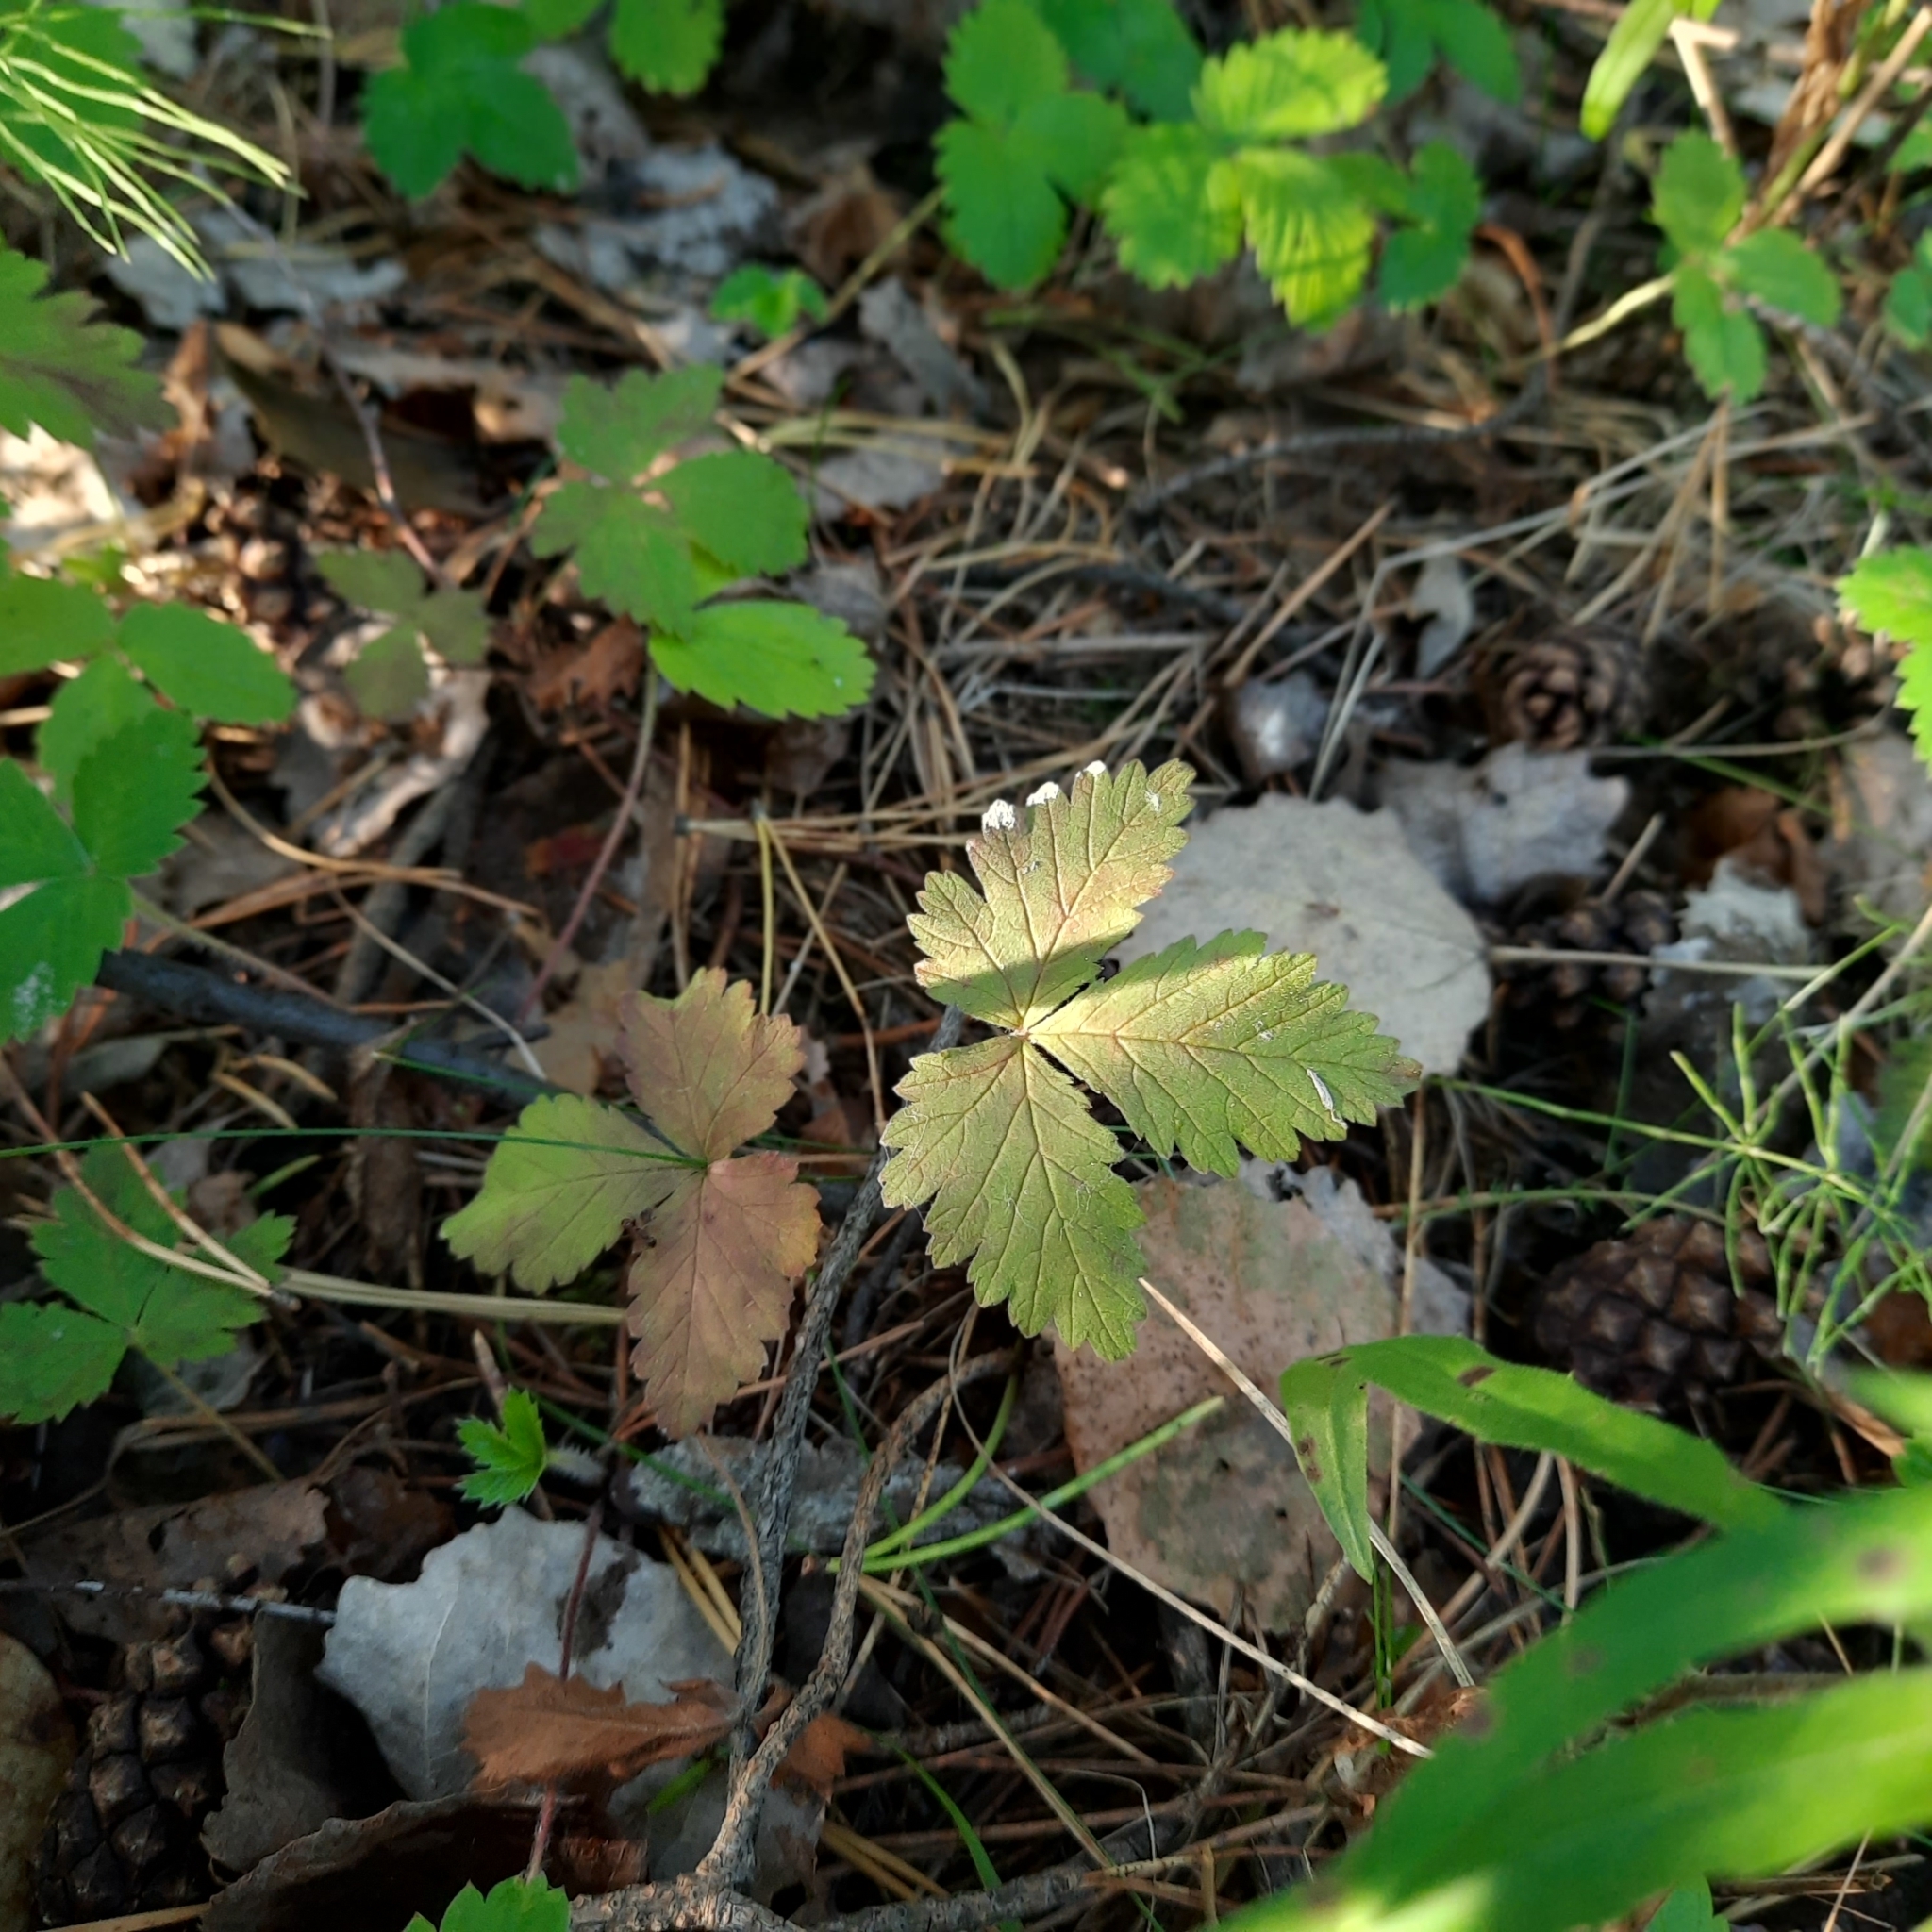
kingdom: Plantae
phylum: Tracheophyta
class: Magnoliopsida
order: Rosales
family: Rosaceae
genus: Rubus
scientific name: Rubus arcticus
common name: Arctic bramble
